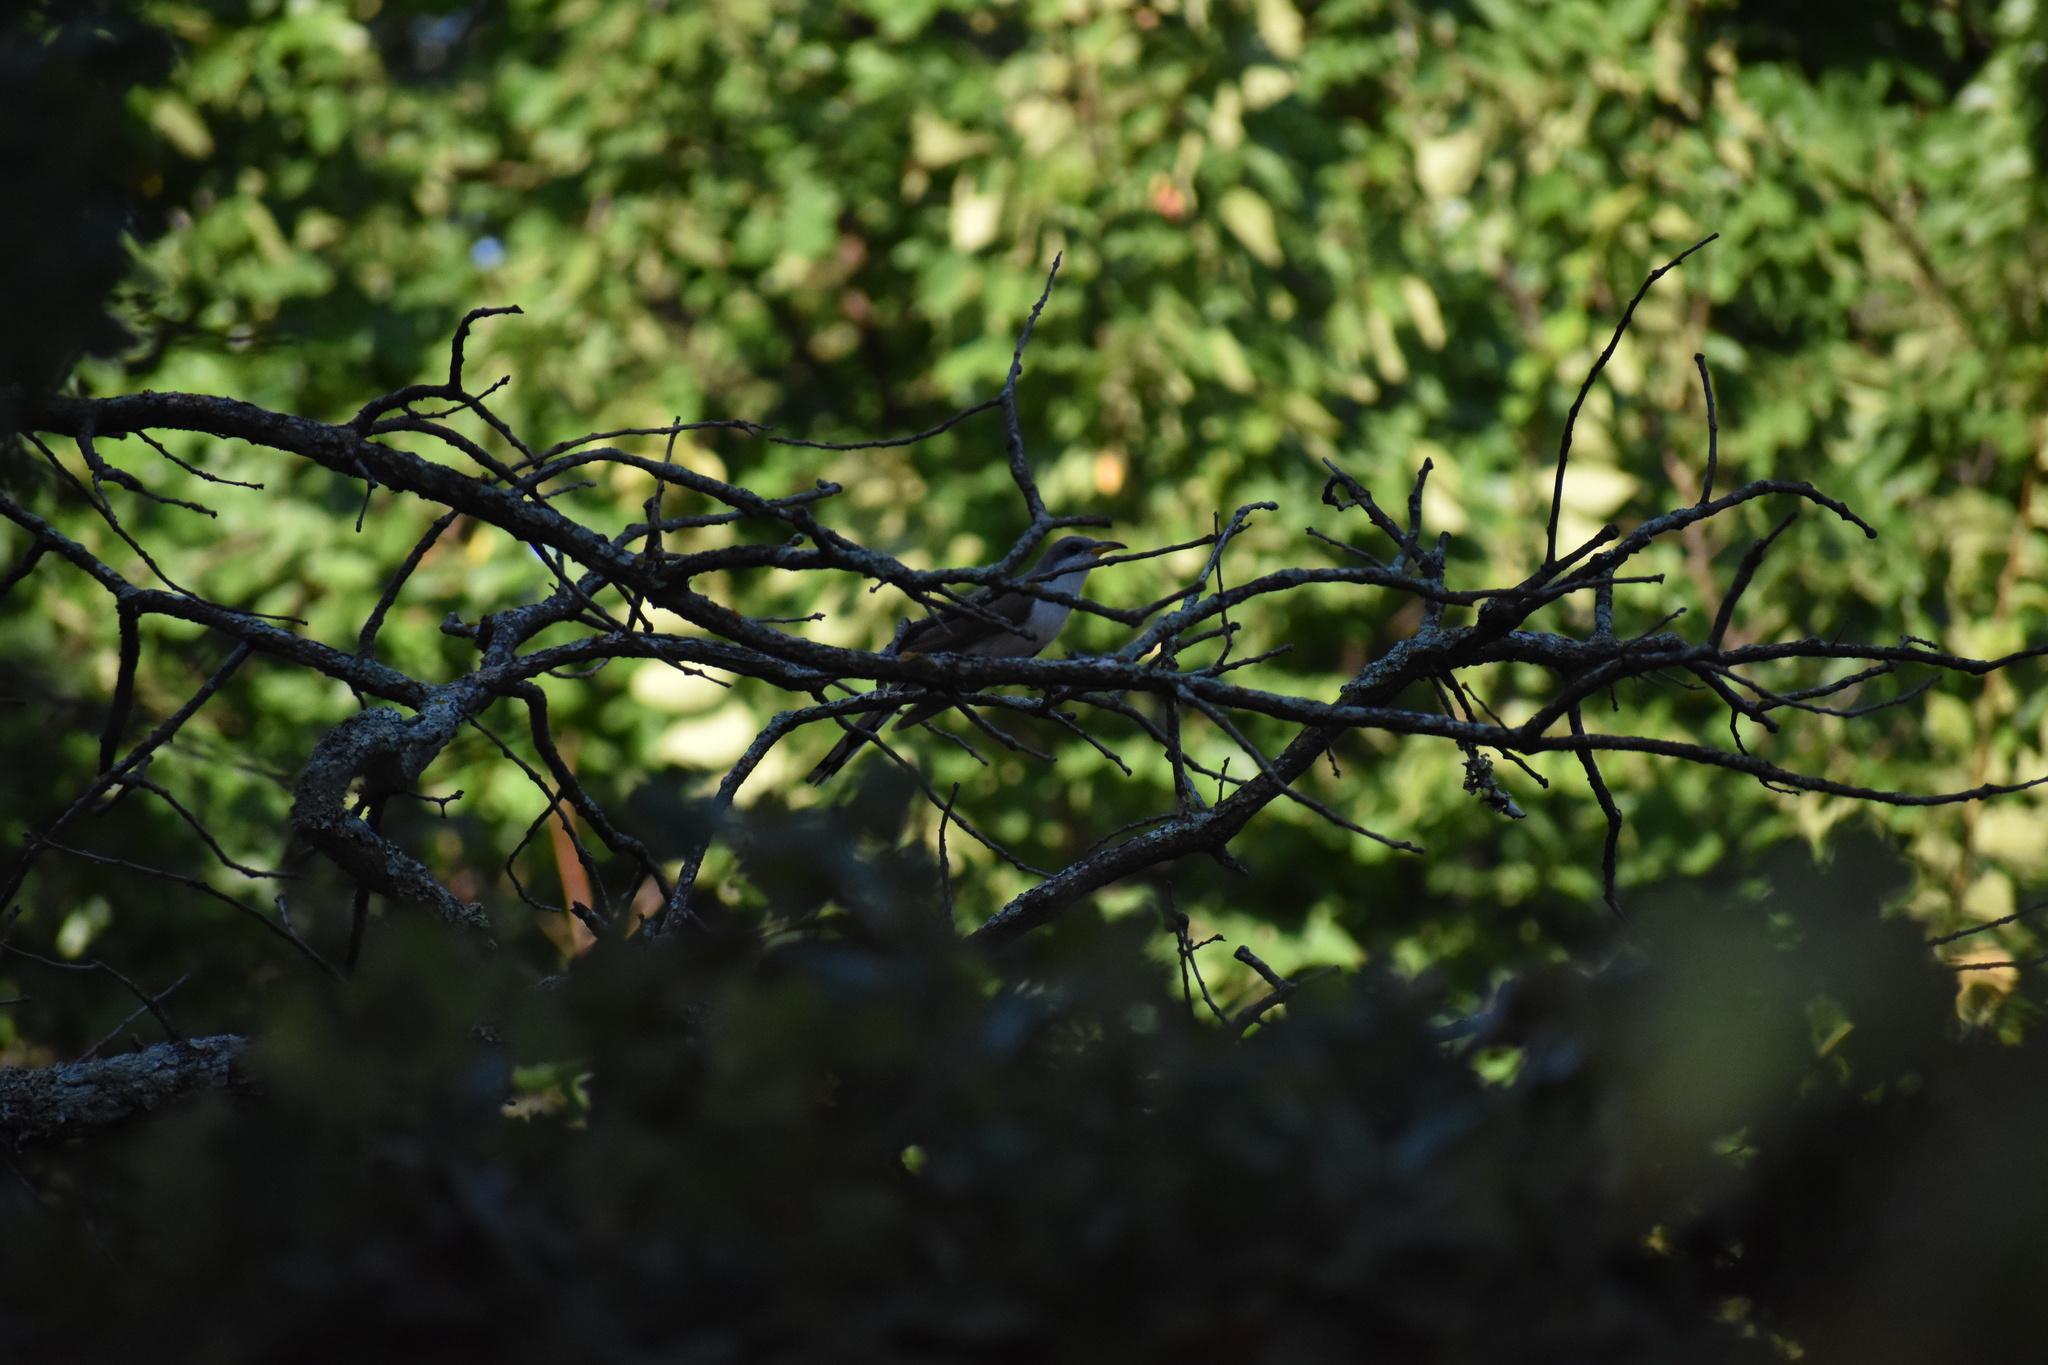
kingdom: Animalia
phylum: Chordata
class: Aves
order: Cuculiformes
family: Cuculidae
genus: Coccyzus
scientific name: Coccyzus americanus
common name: Yellow-billed cuckoo
